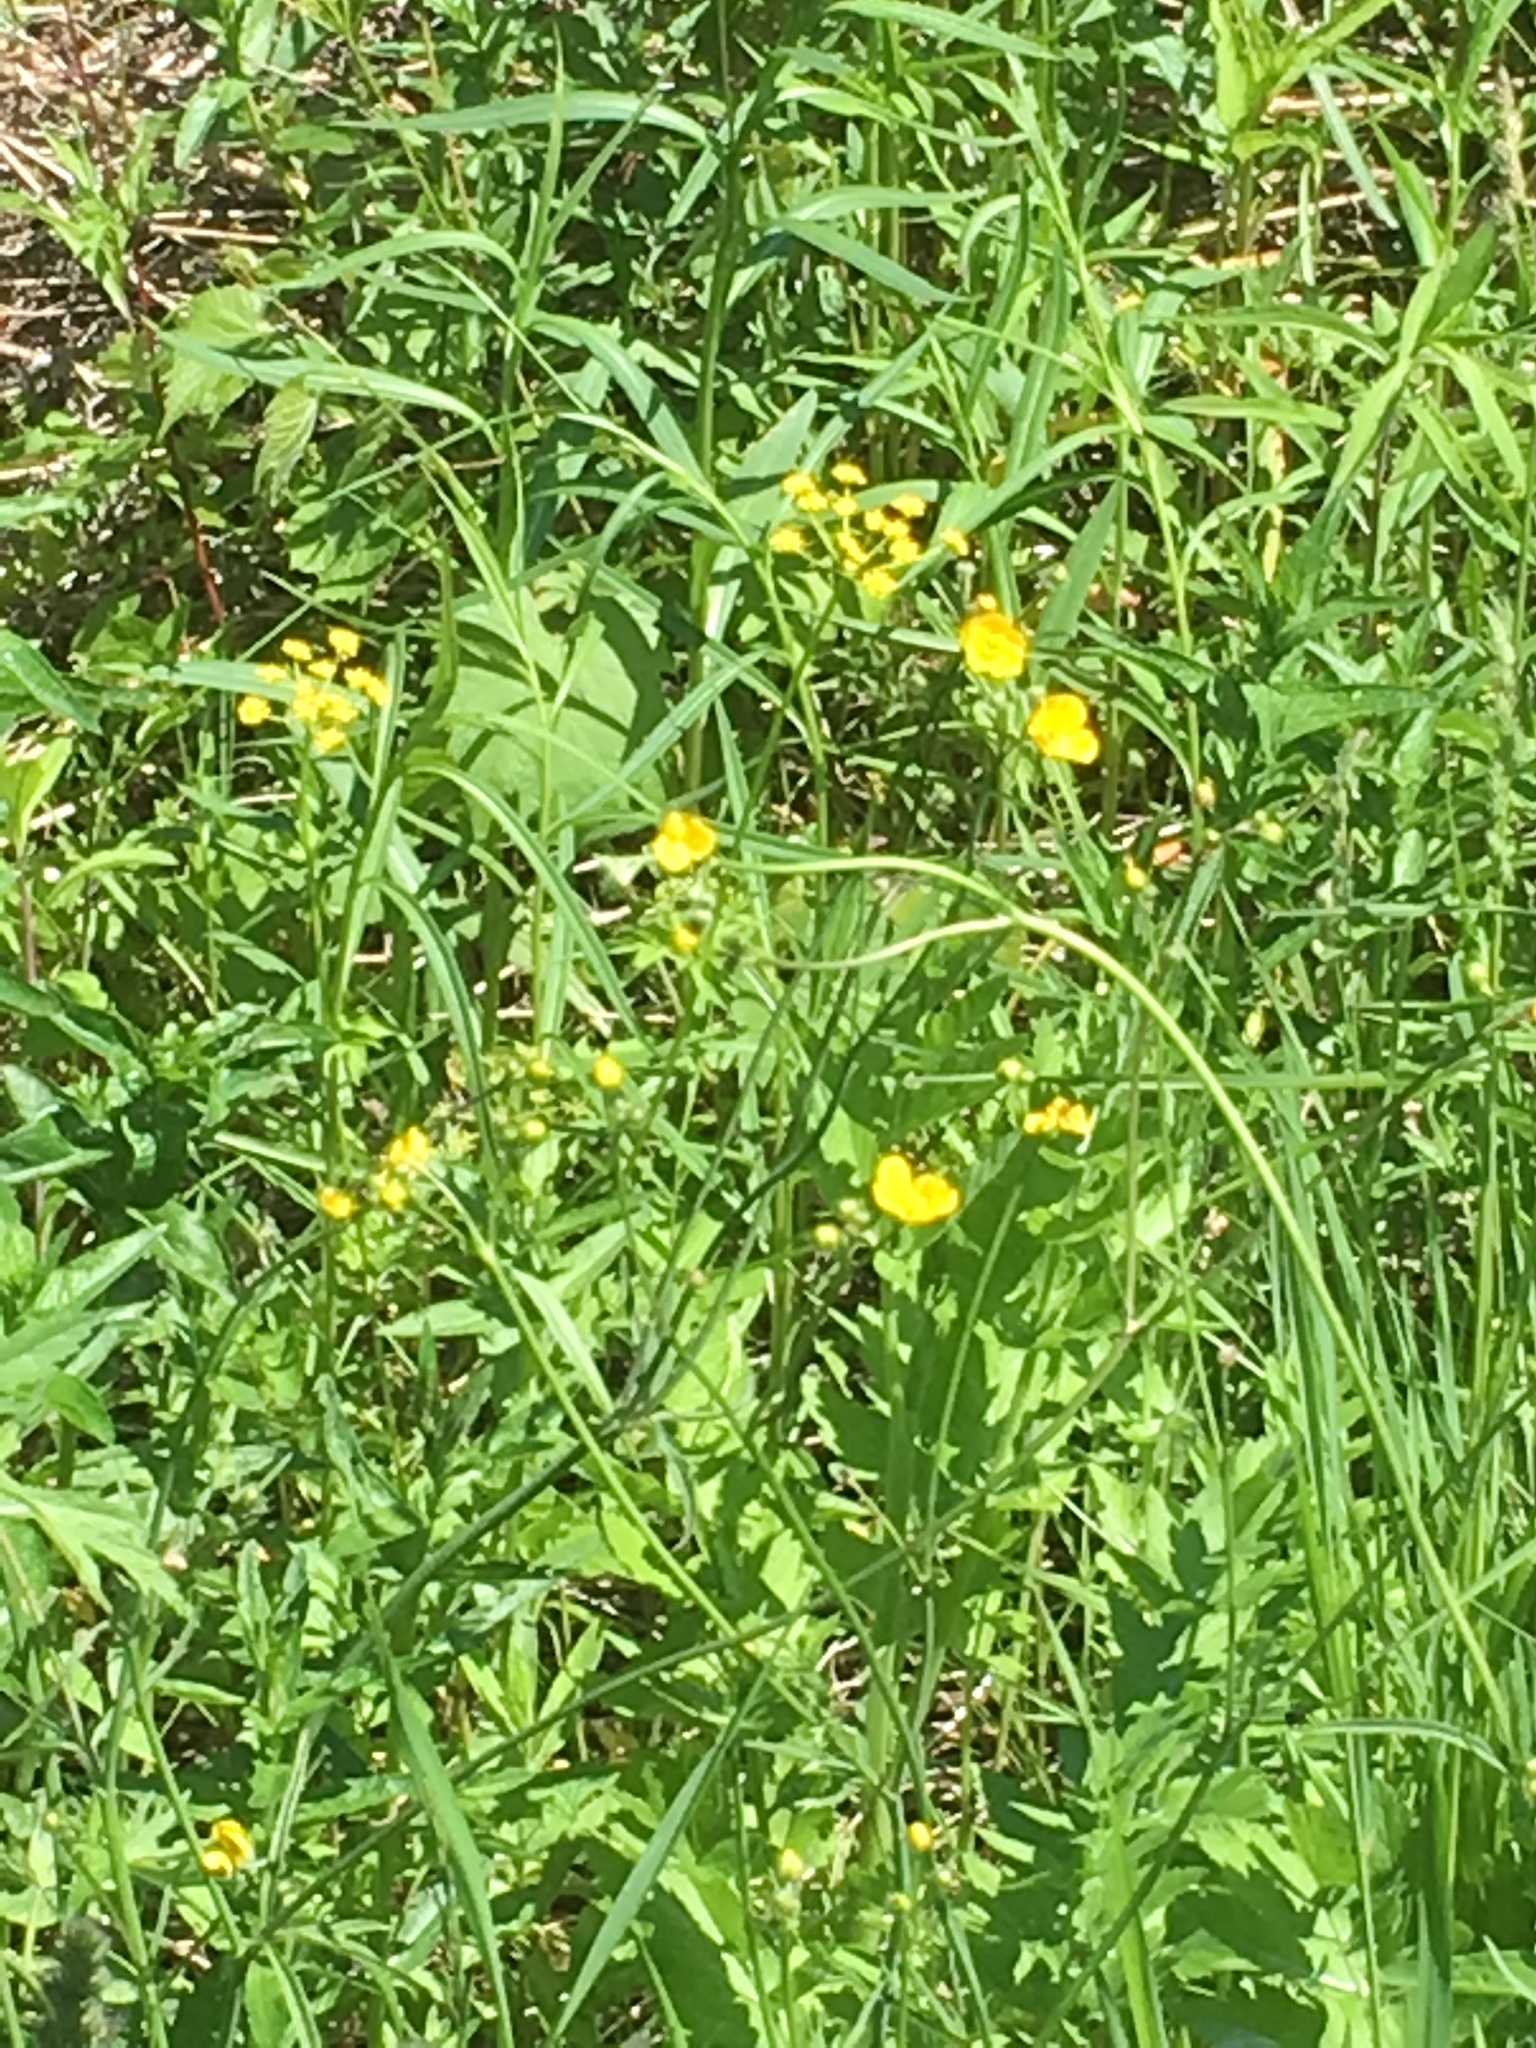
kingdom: Plantae
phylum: Tracheophyta
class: Magnoliopsida
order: Apiales
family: Apiaceae
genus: Zizia
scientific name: Zizia aurea
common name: Golden alexanders
